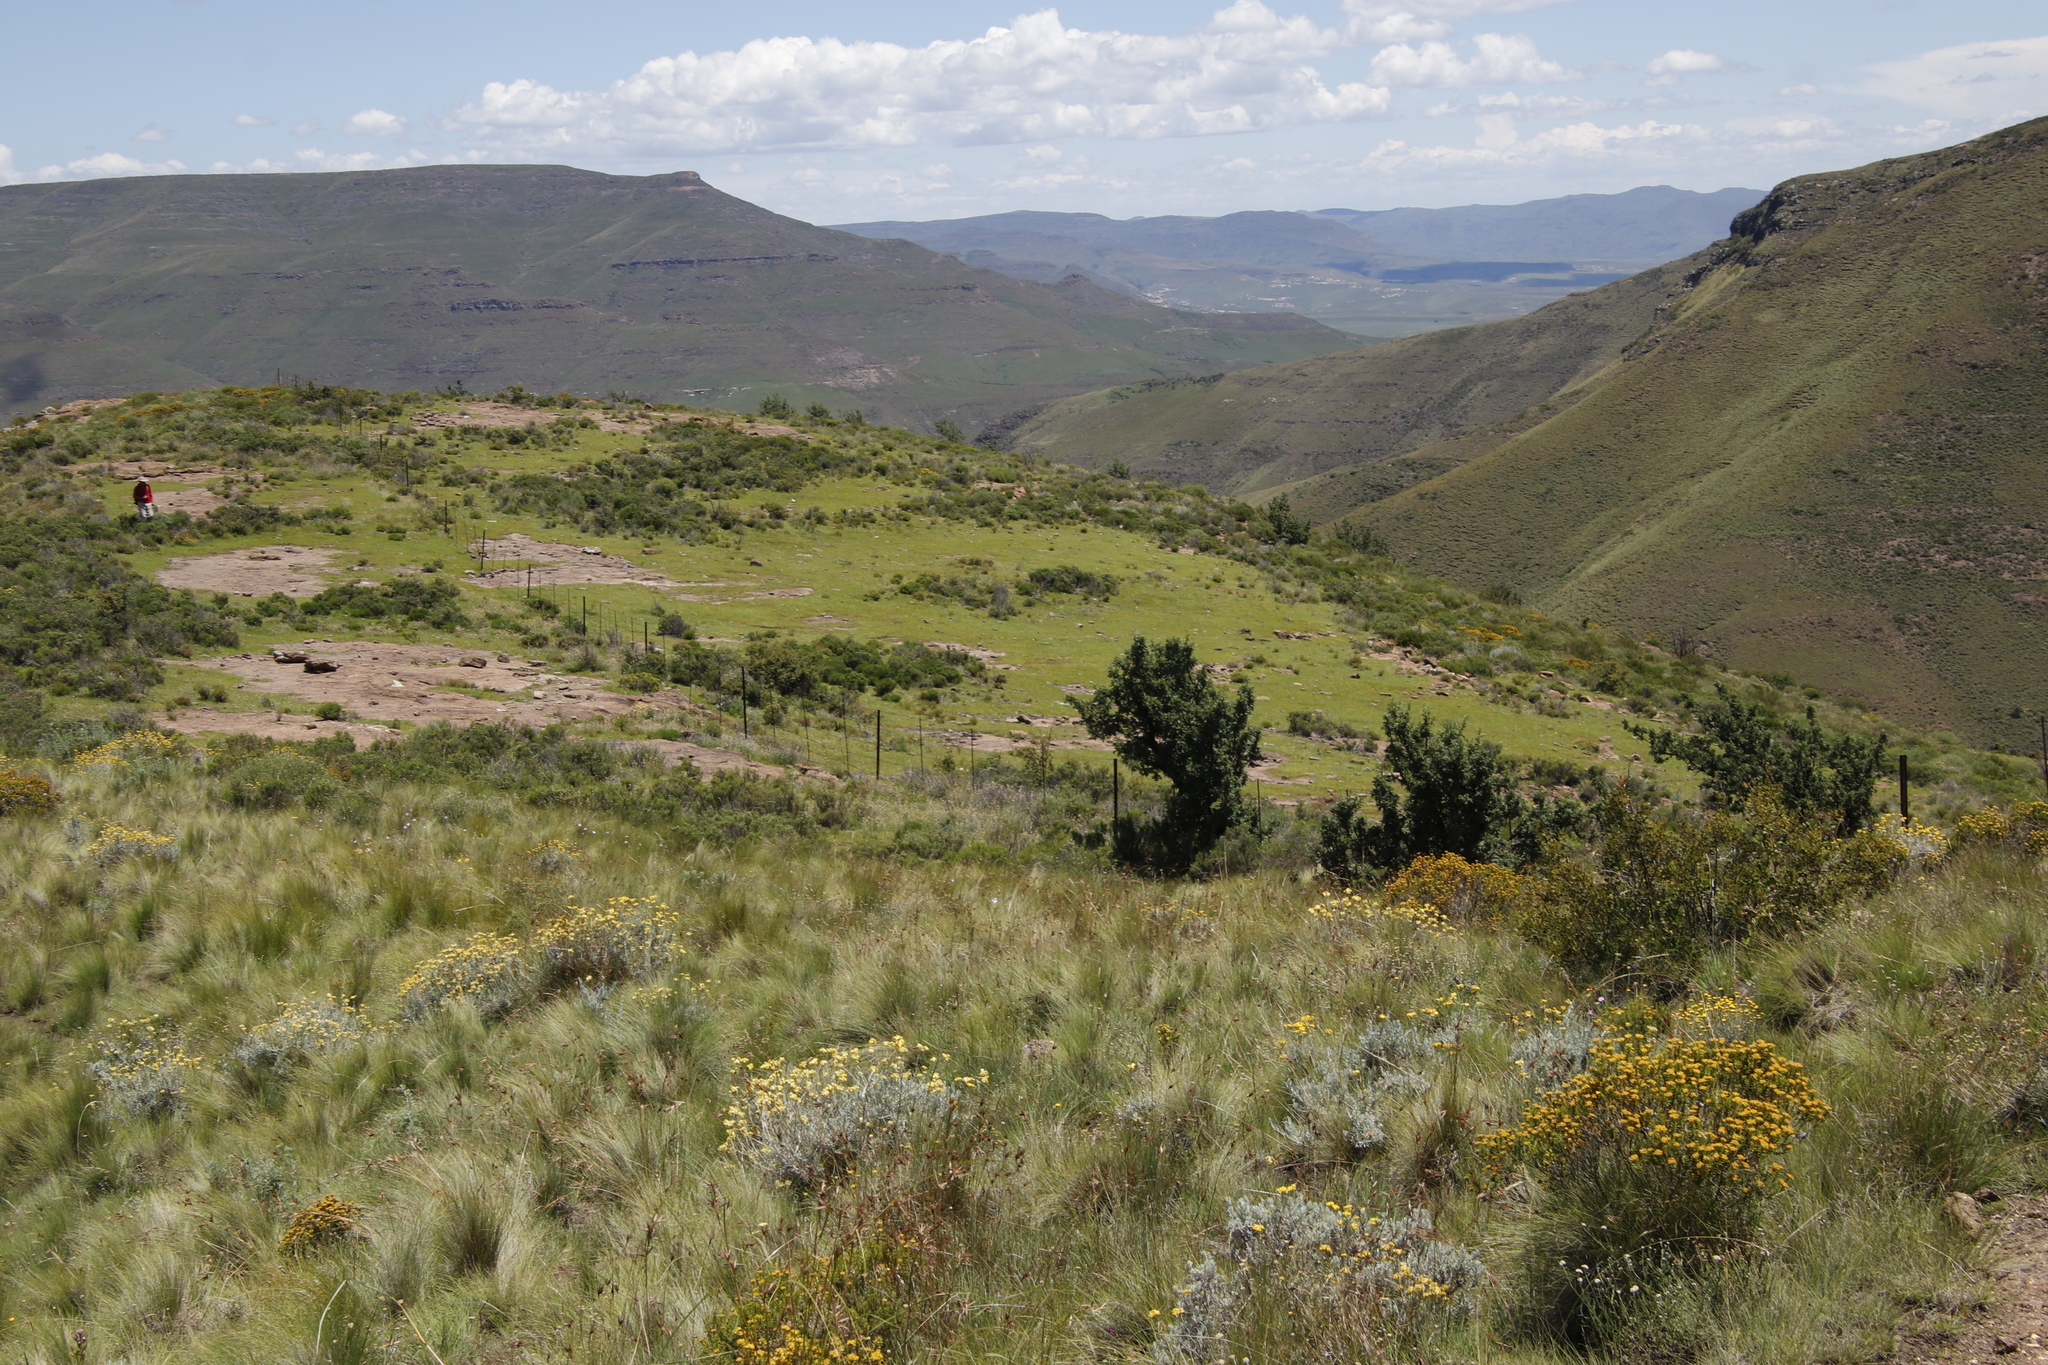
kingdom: Plantae
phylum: Tracheophyta
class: Magnoliopsida
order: Rosales
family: Rosaceae
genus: Leucosidea
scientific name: Leucosidea sericea
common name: Oldwood
